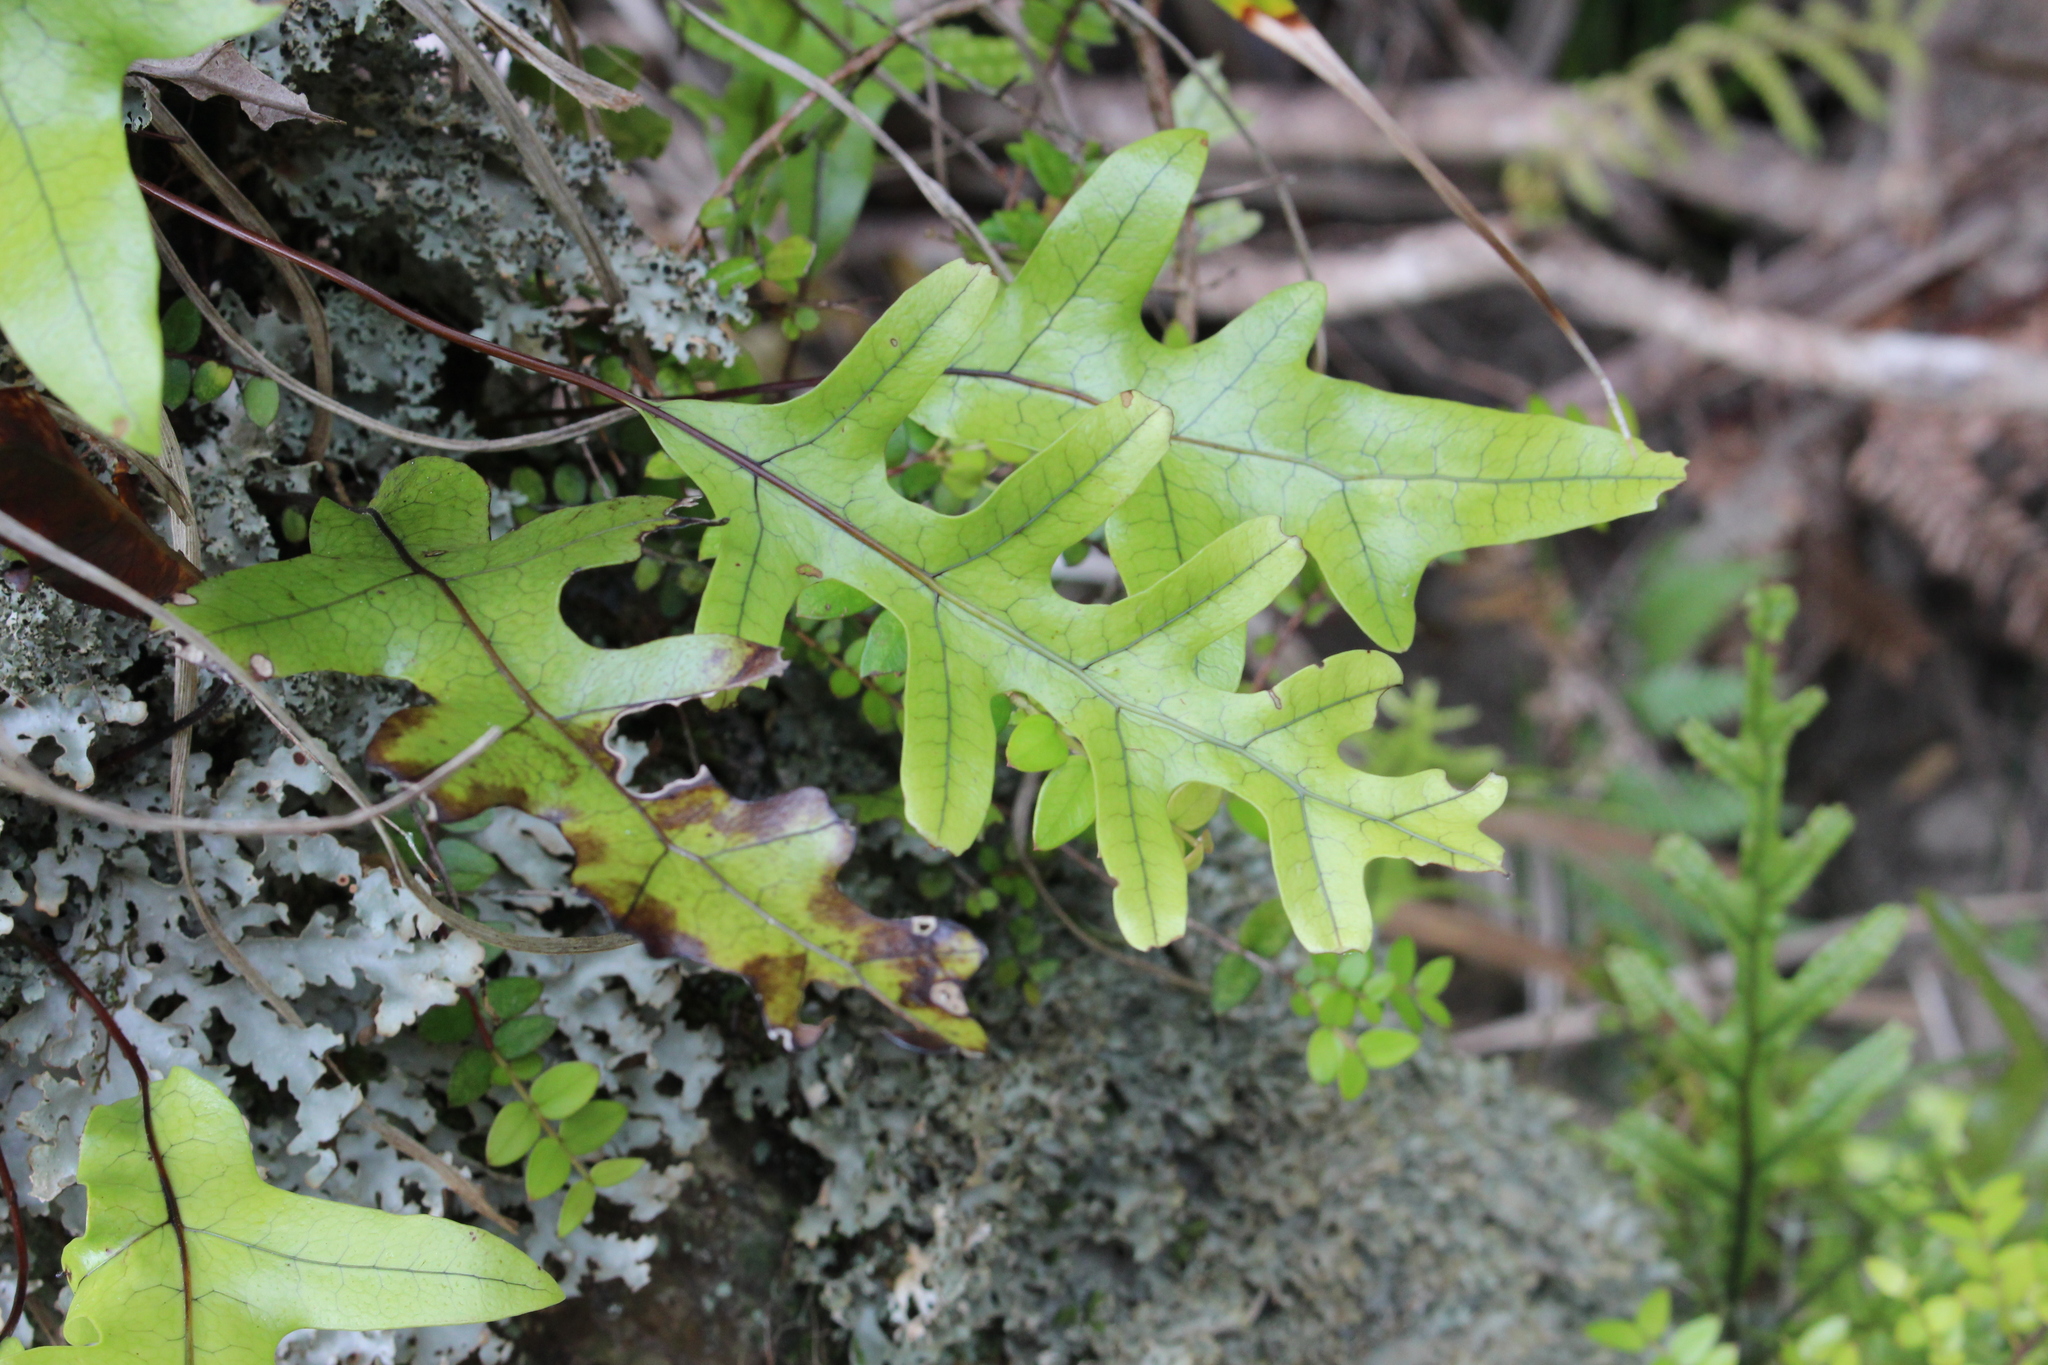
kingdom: Plantae
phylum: Tracheophyta
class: Polypodiopsida
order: Polypodiales
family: Polypodiaceae
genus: Lecanopteris
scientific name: Lecanopteris pustulata
